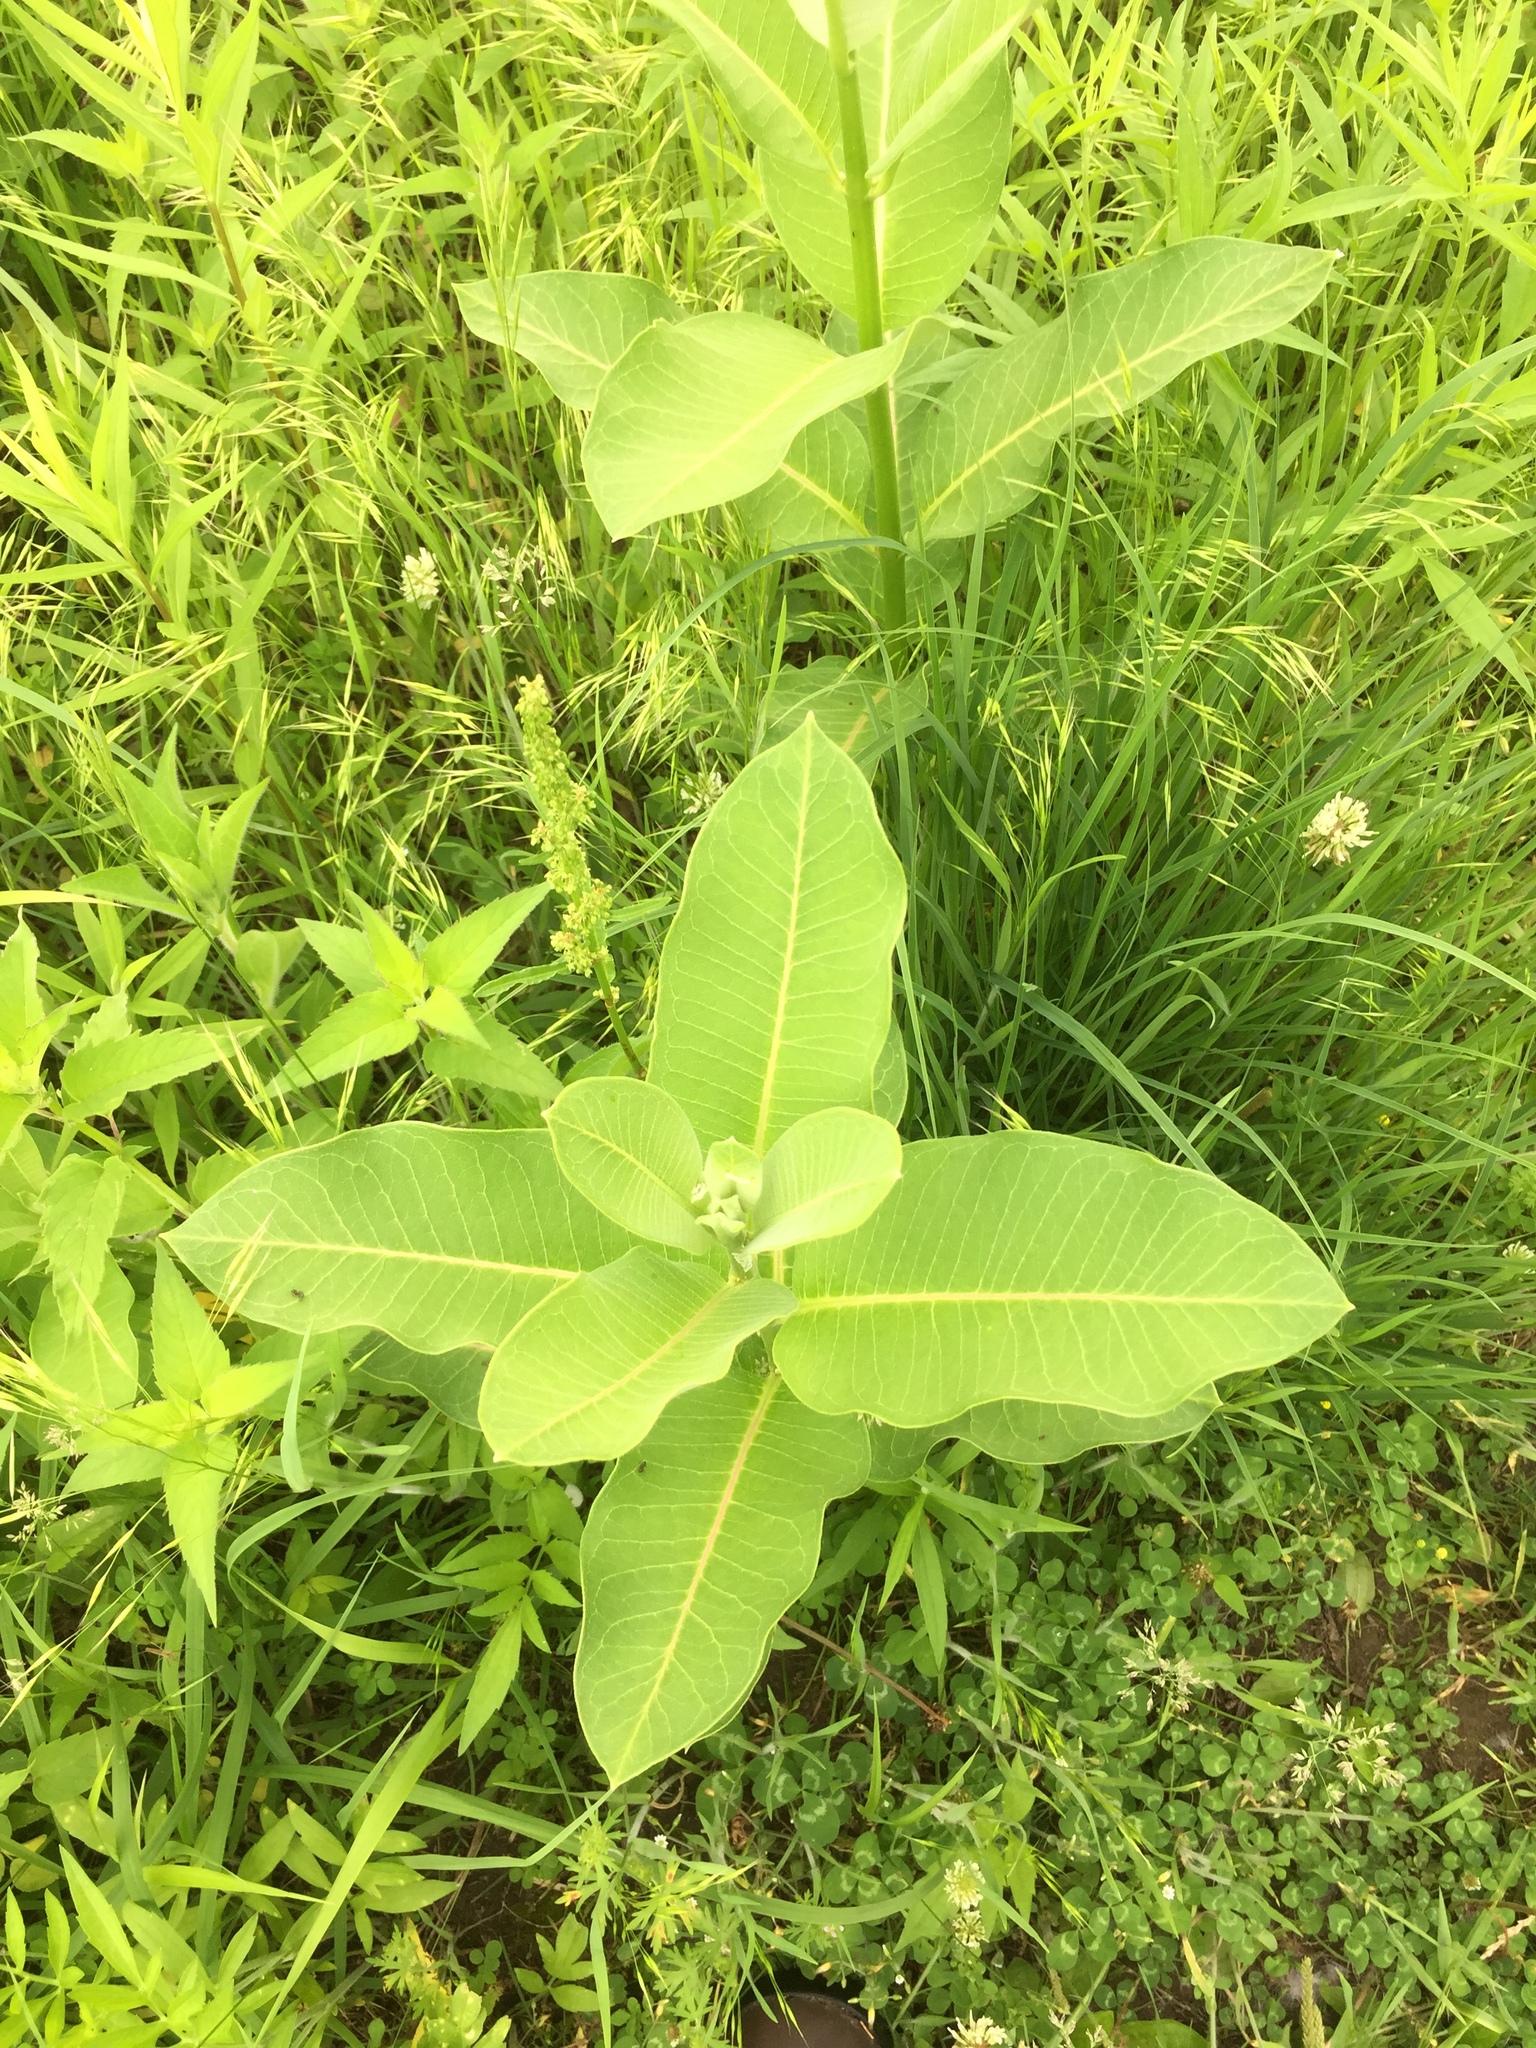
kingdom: Plantae
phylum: Tracheophyta
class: Magnoliopsida
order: Gentianales
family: Apocynaceae
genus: Asclepias
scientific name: Asclepias syriaca
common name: Common milkweed
